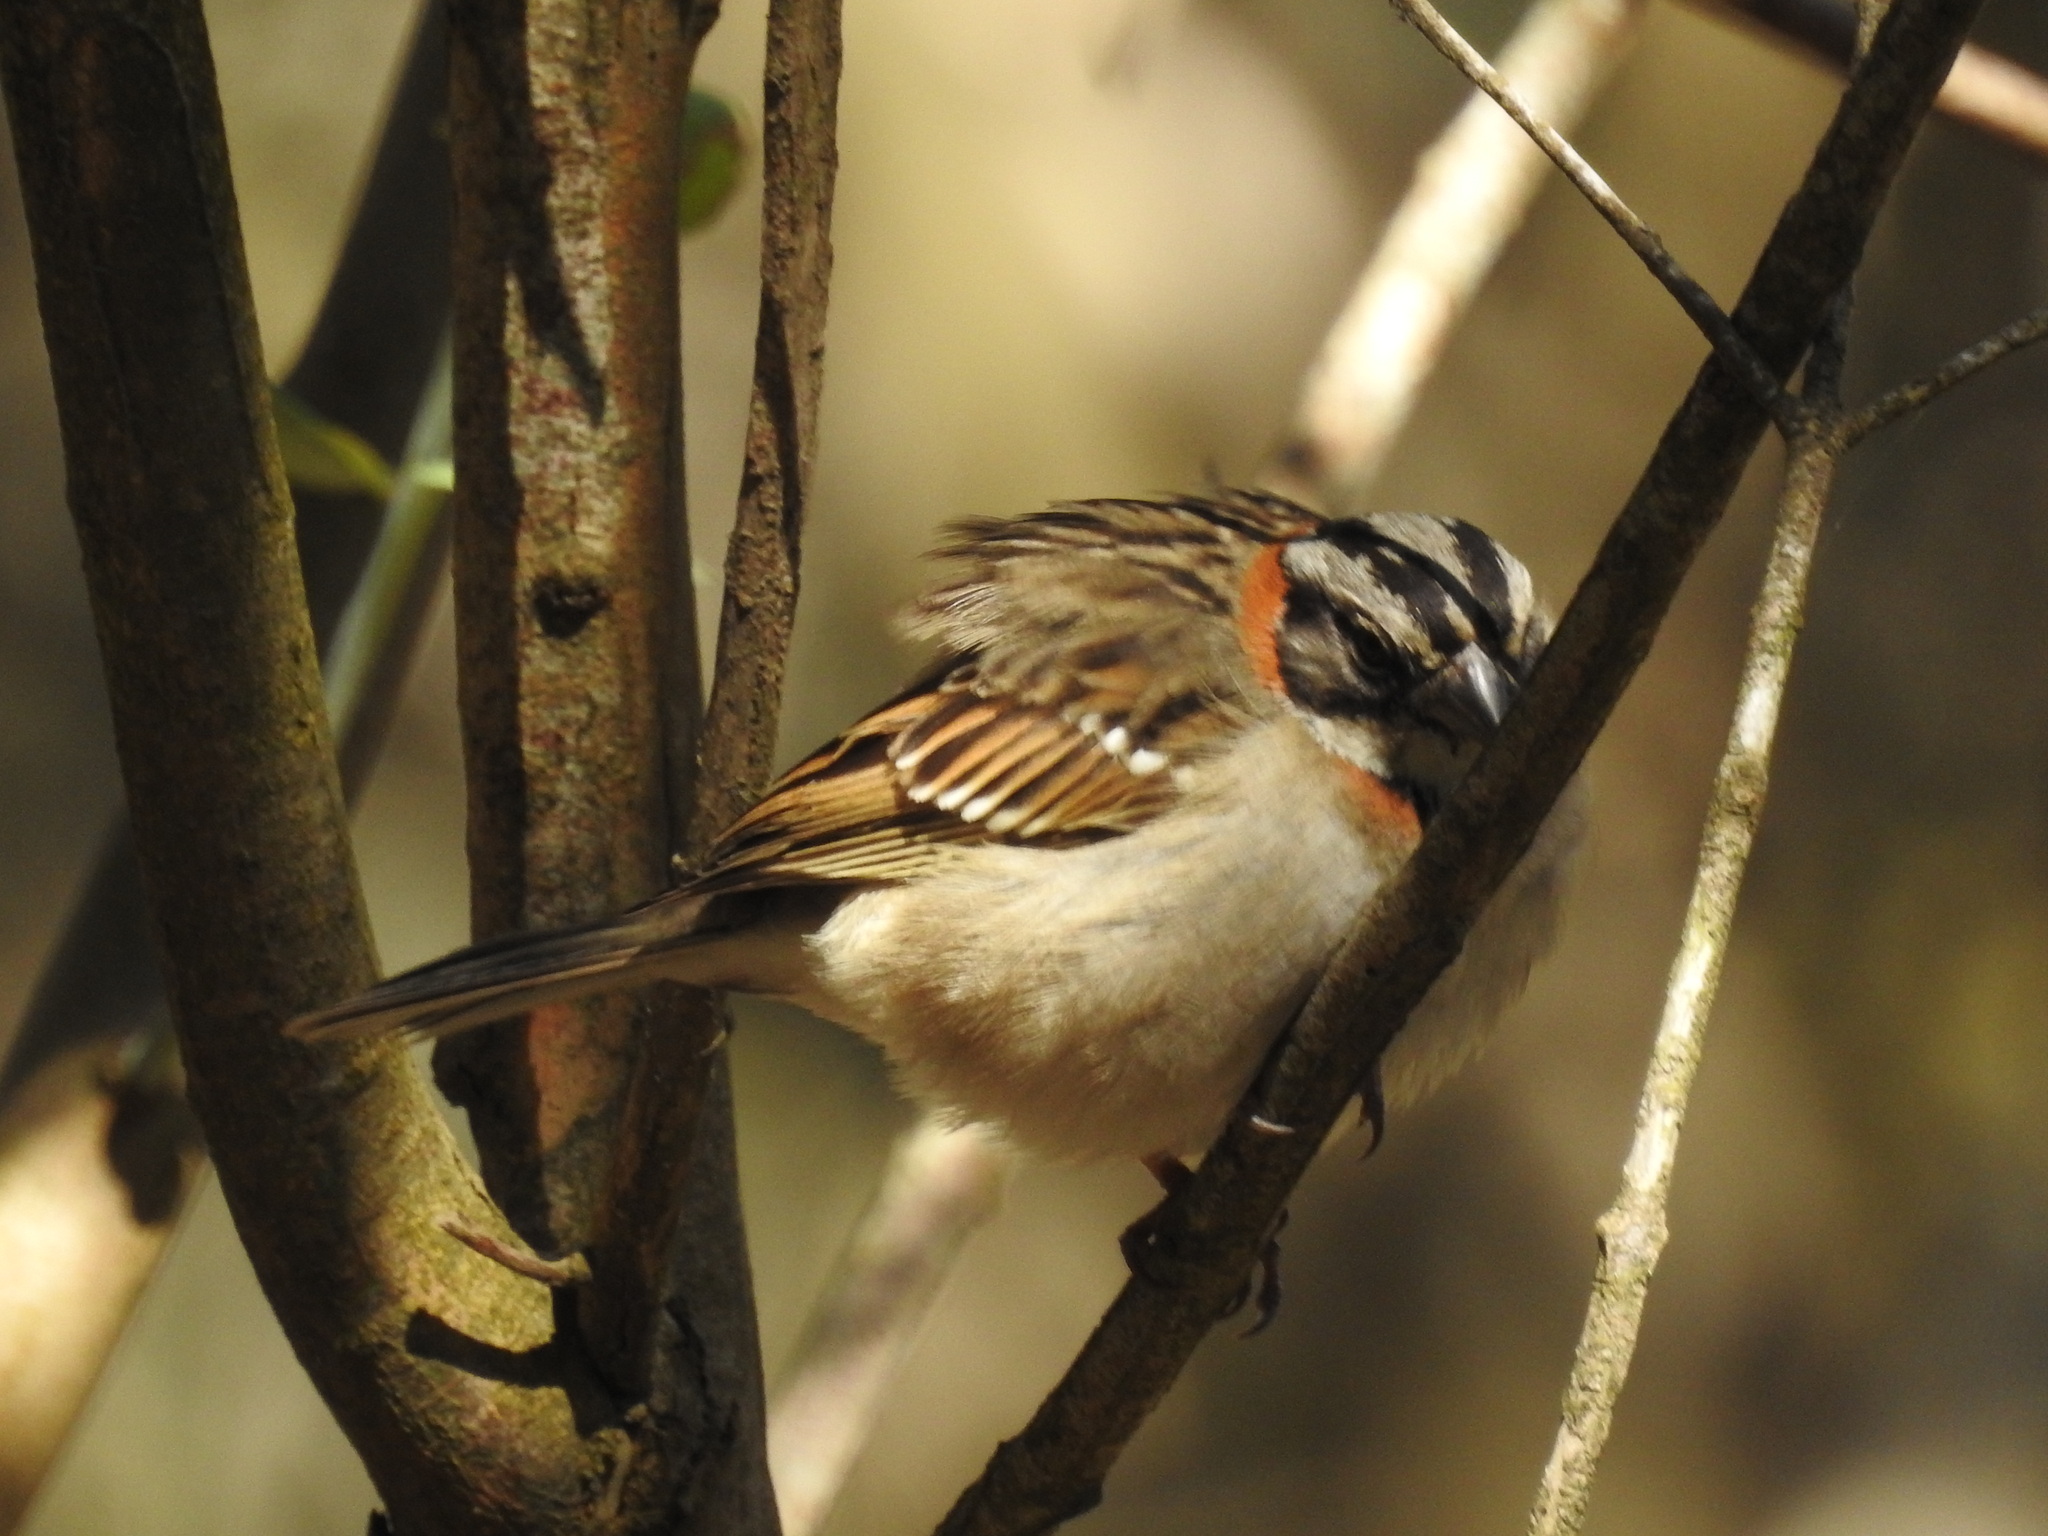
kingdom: Animalia
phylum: Chordata
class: Aves
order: Passeriformes
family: Passerellidae
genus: Zonotrichia
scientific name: Zonotrichia capensis
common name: Rufous-collared sparrow
